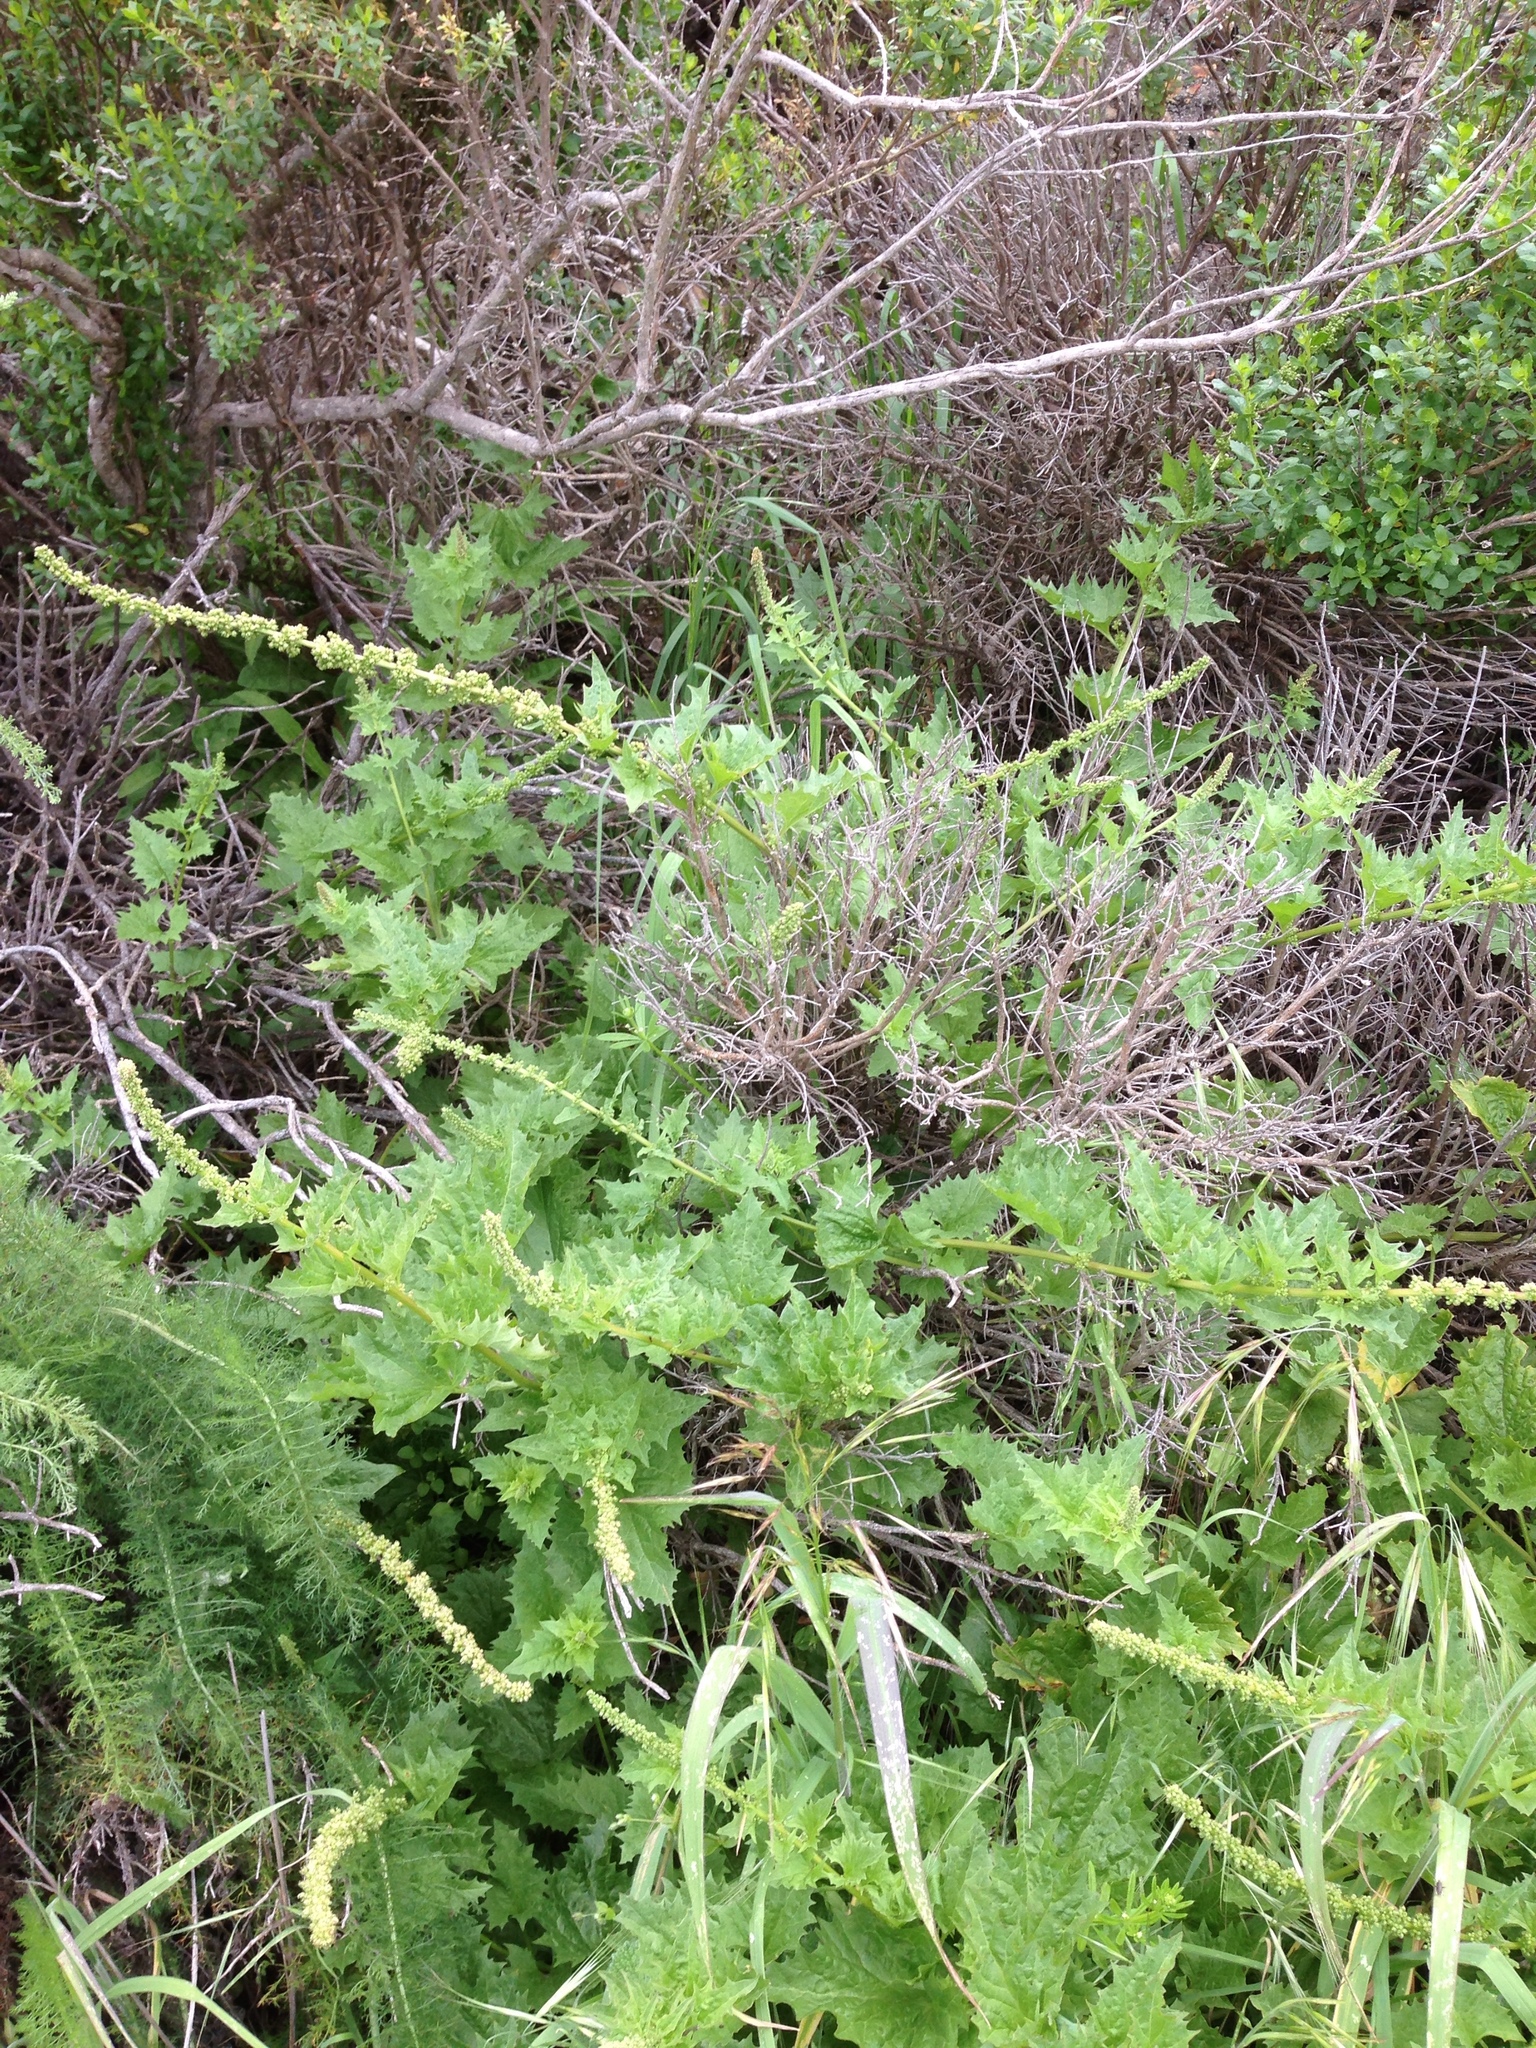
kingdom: Plantae
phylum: Tracheophyta
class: Magnoliopsida
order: Caryophyllales
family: Amaranthaceae
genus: Blitum
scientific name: Blitum californicum
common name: California goosefoot
